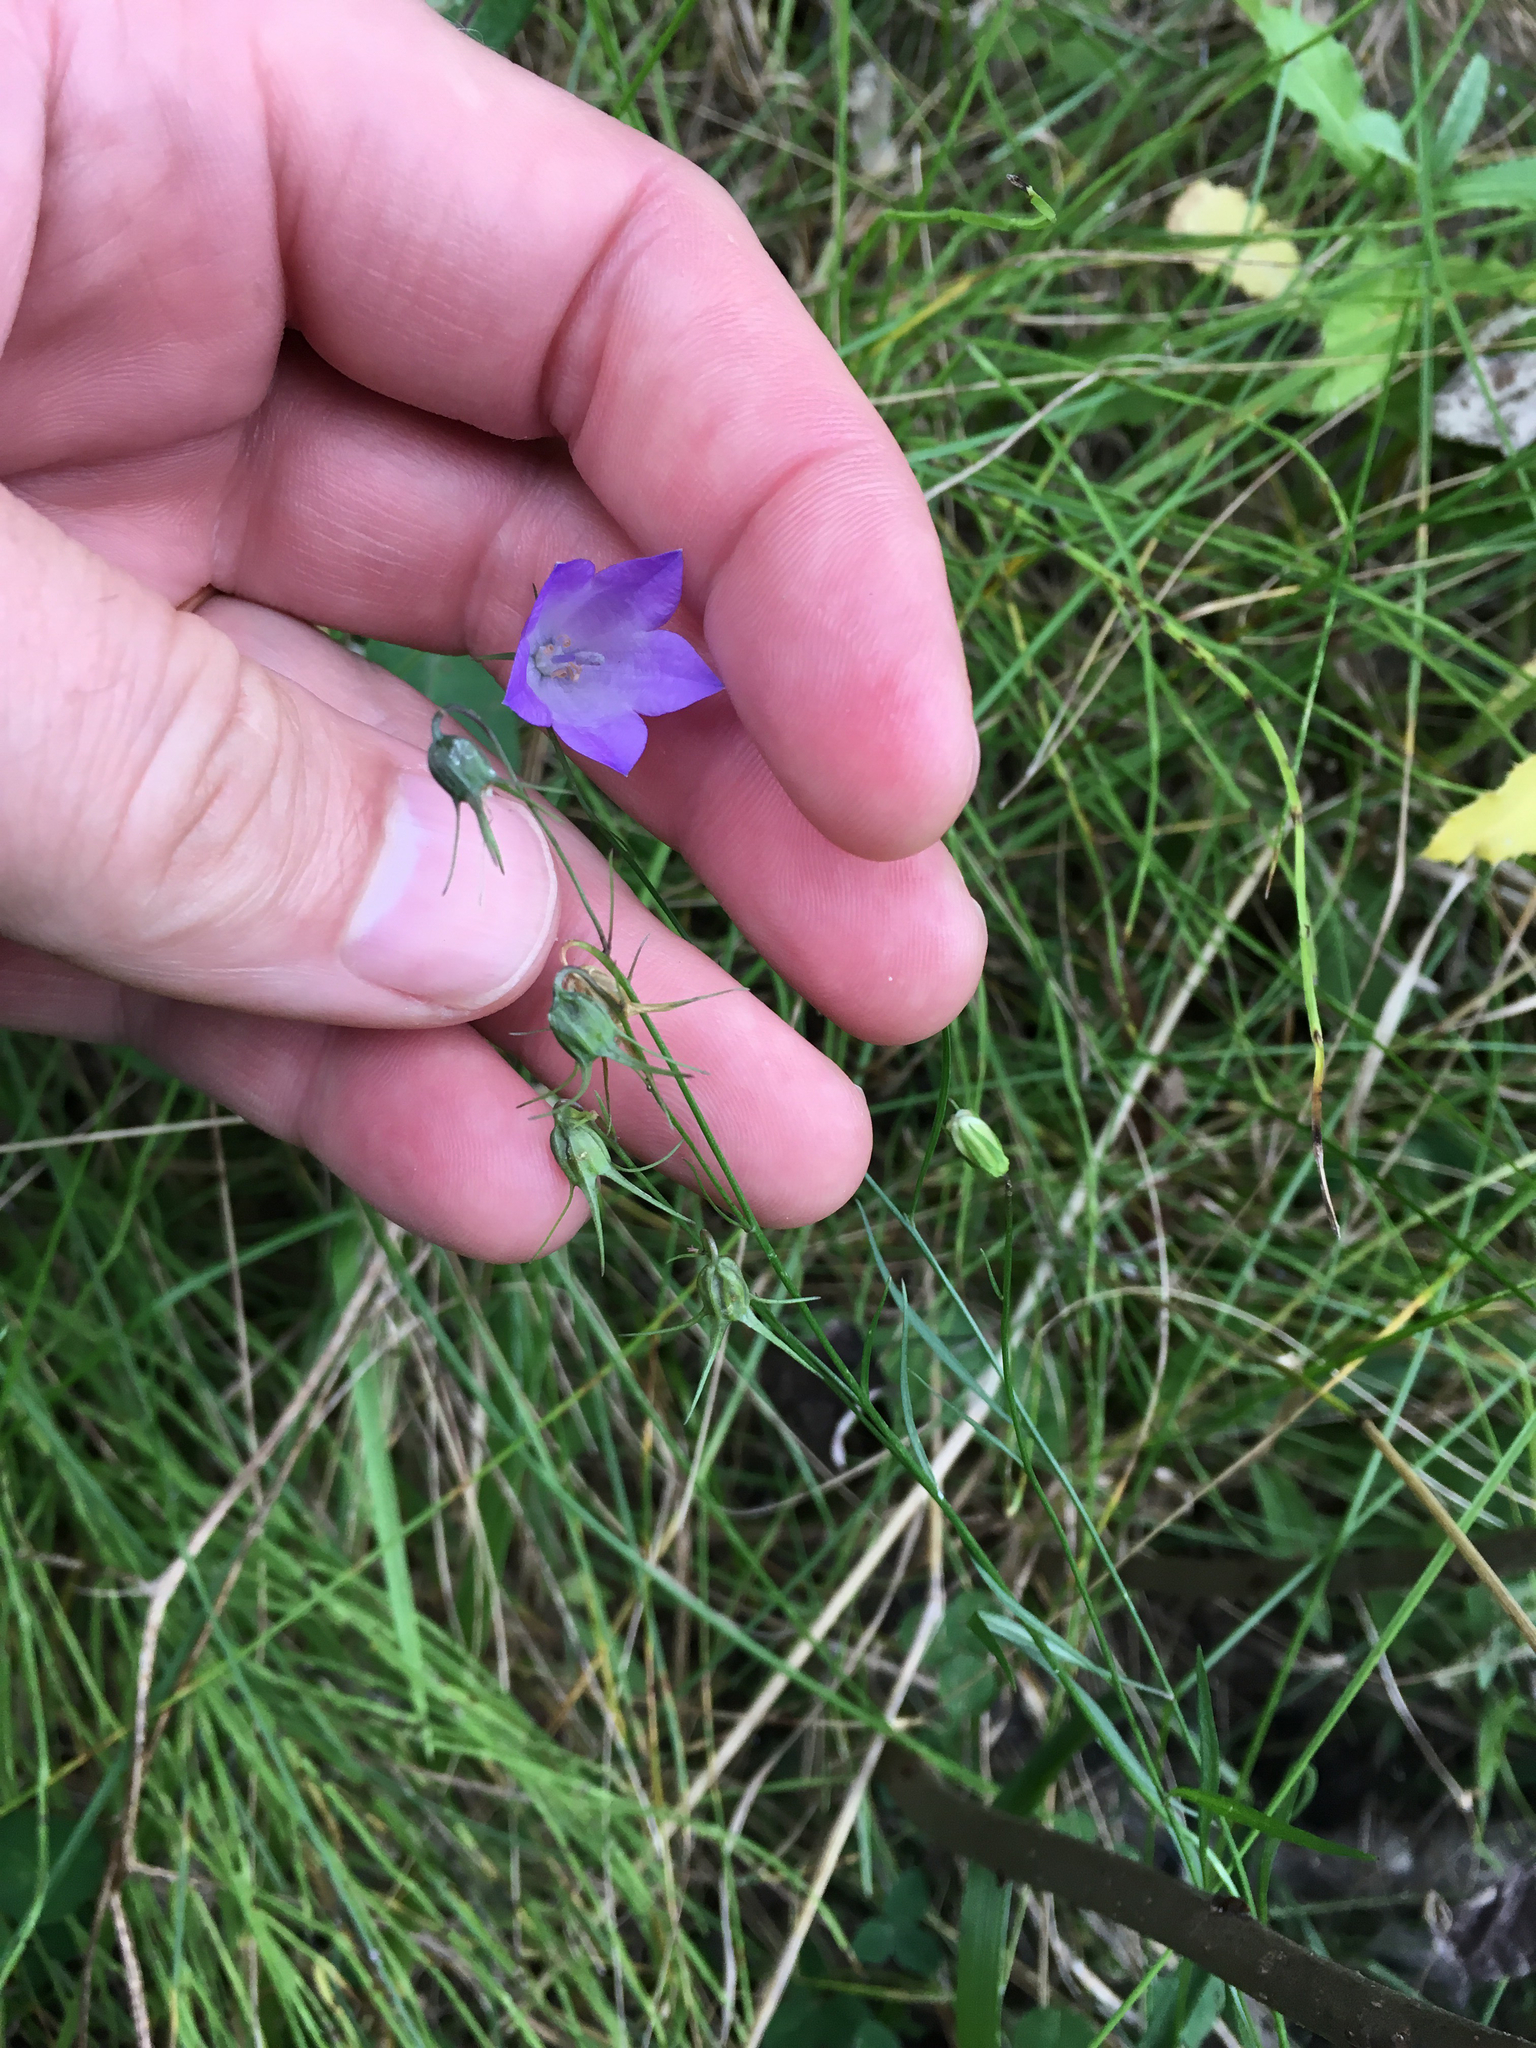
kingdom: Plantae
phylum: Tracheophyta
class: Magnoliopsida
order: Asterales
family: Campanulaceae
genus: Campanula
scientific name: Campanula petiolata
